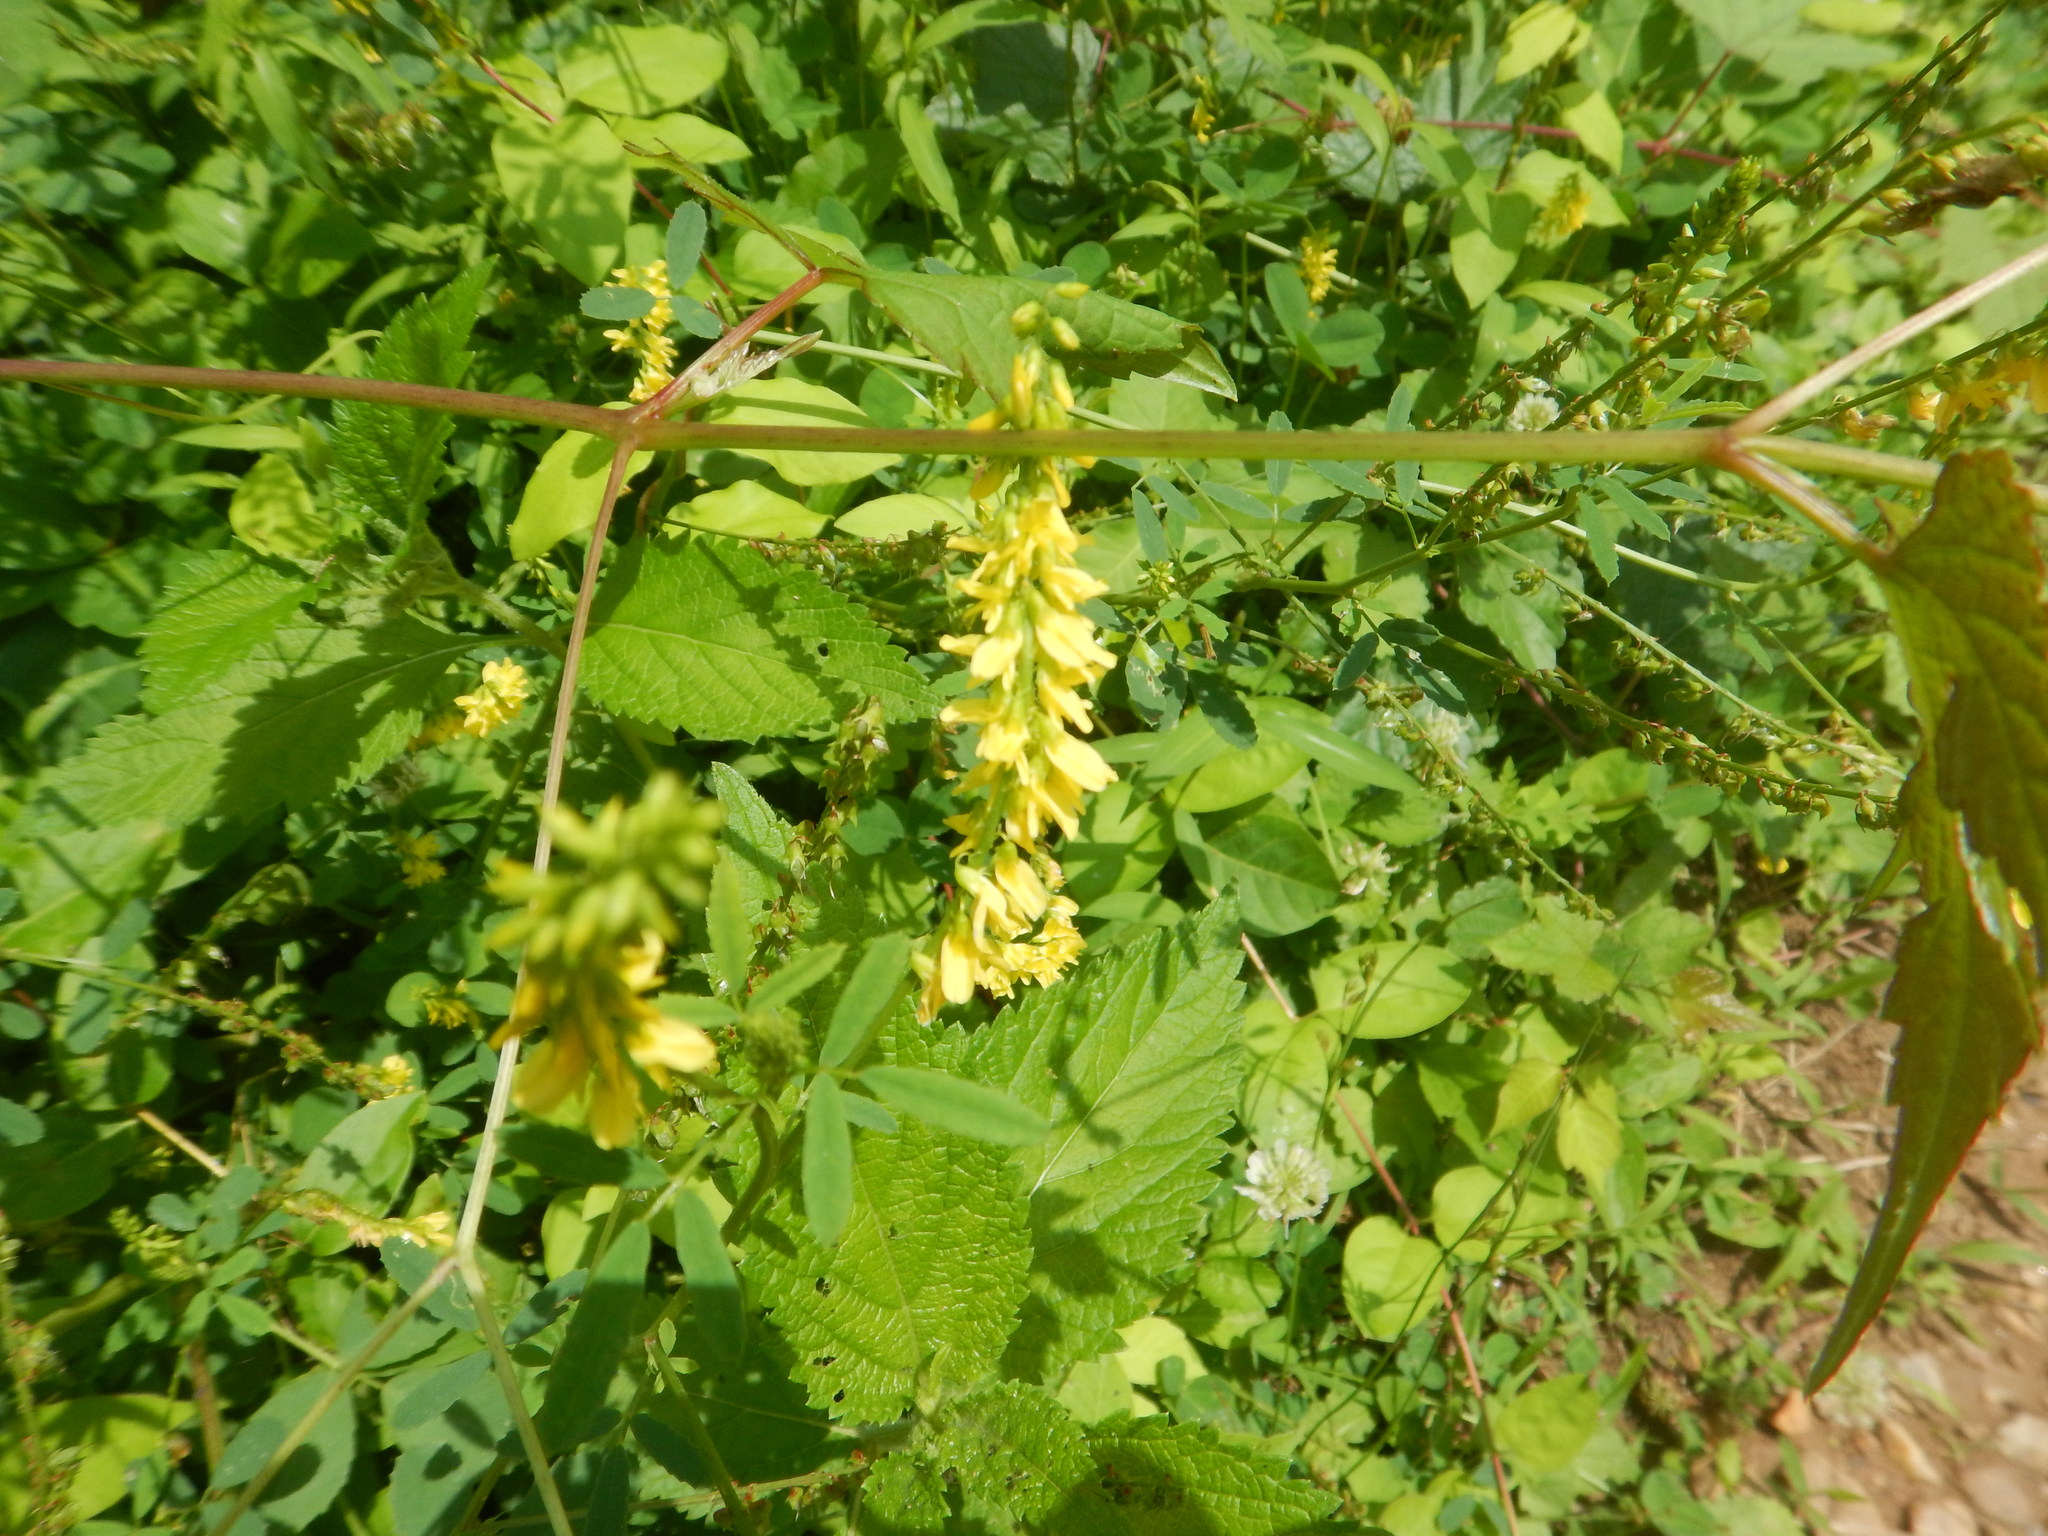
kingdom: Plantae
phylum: Tracheophyta
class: Magnoliopsida
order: Fabales
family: Fabaceae
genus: Melilotus
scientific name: Melilotus officinalis
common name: Sweetclover
